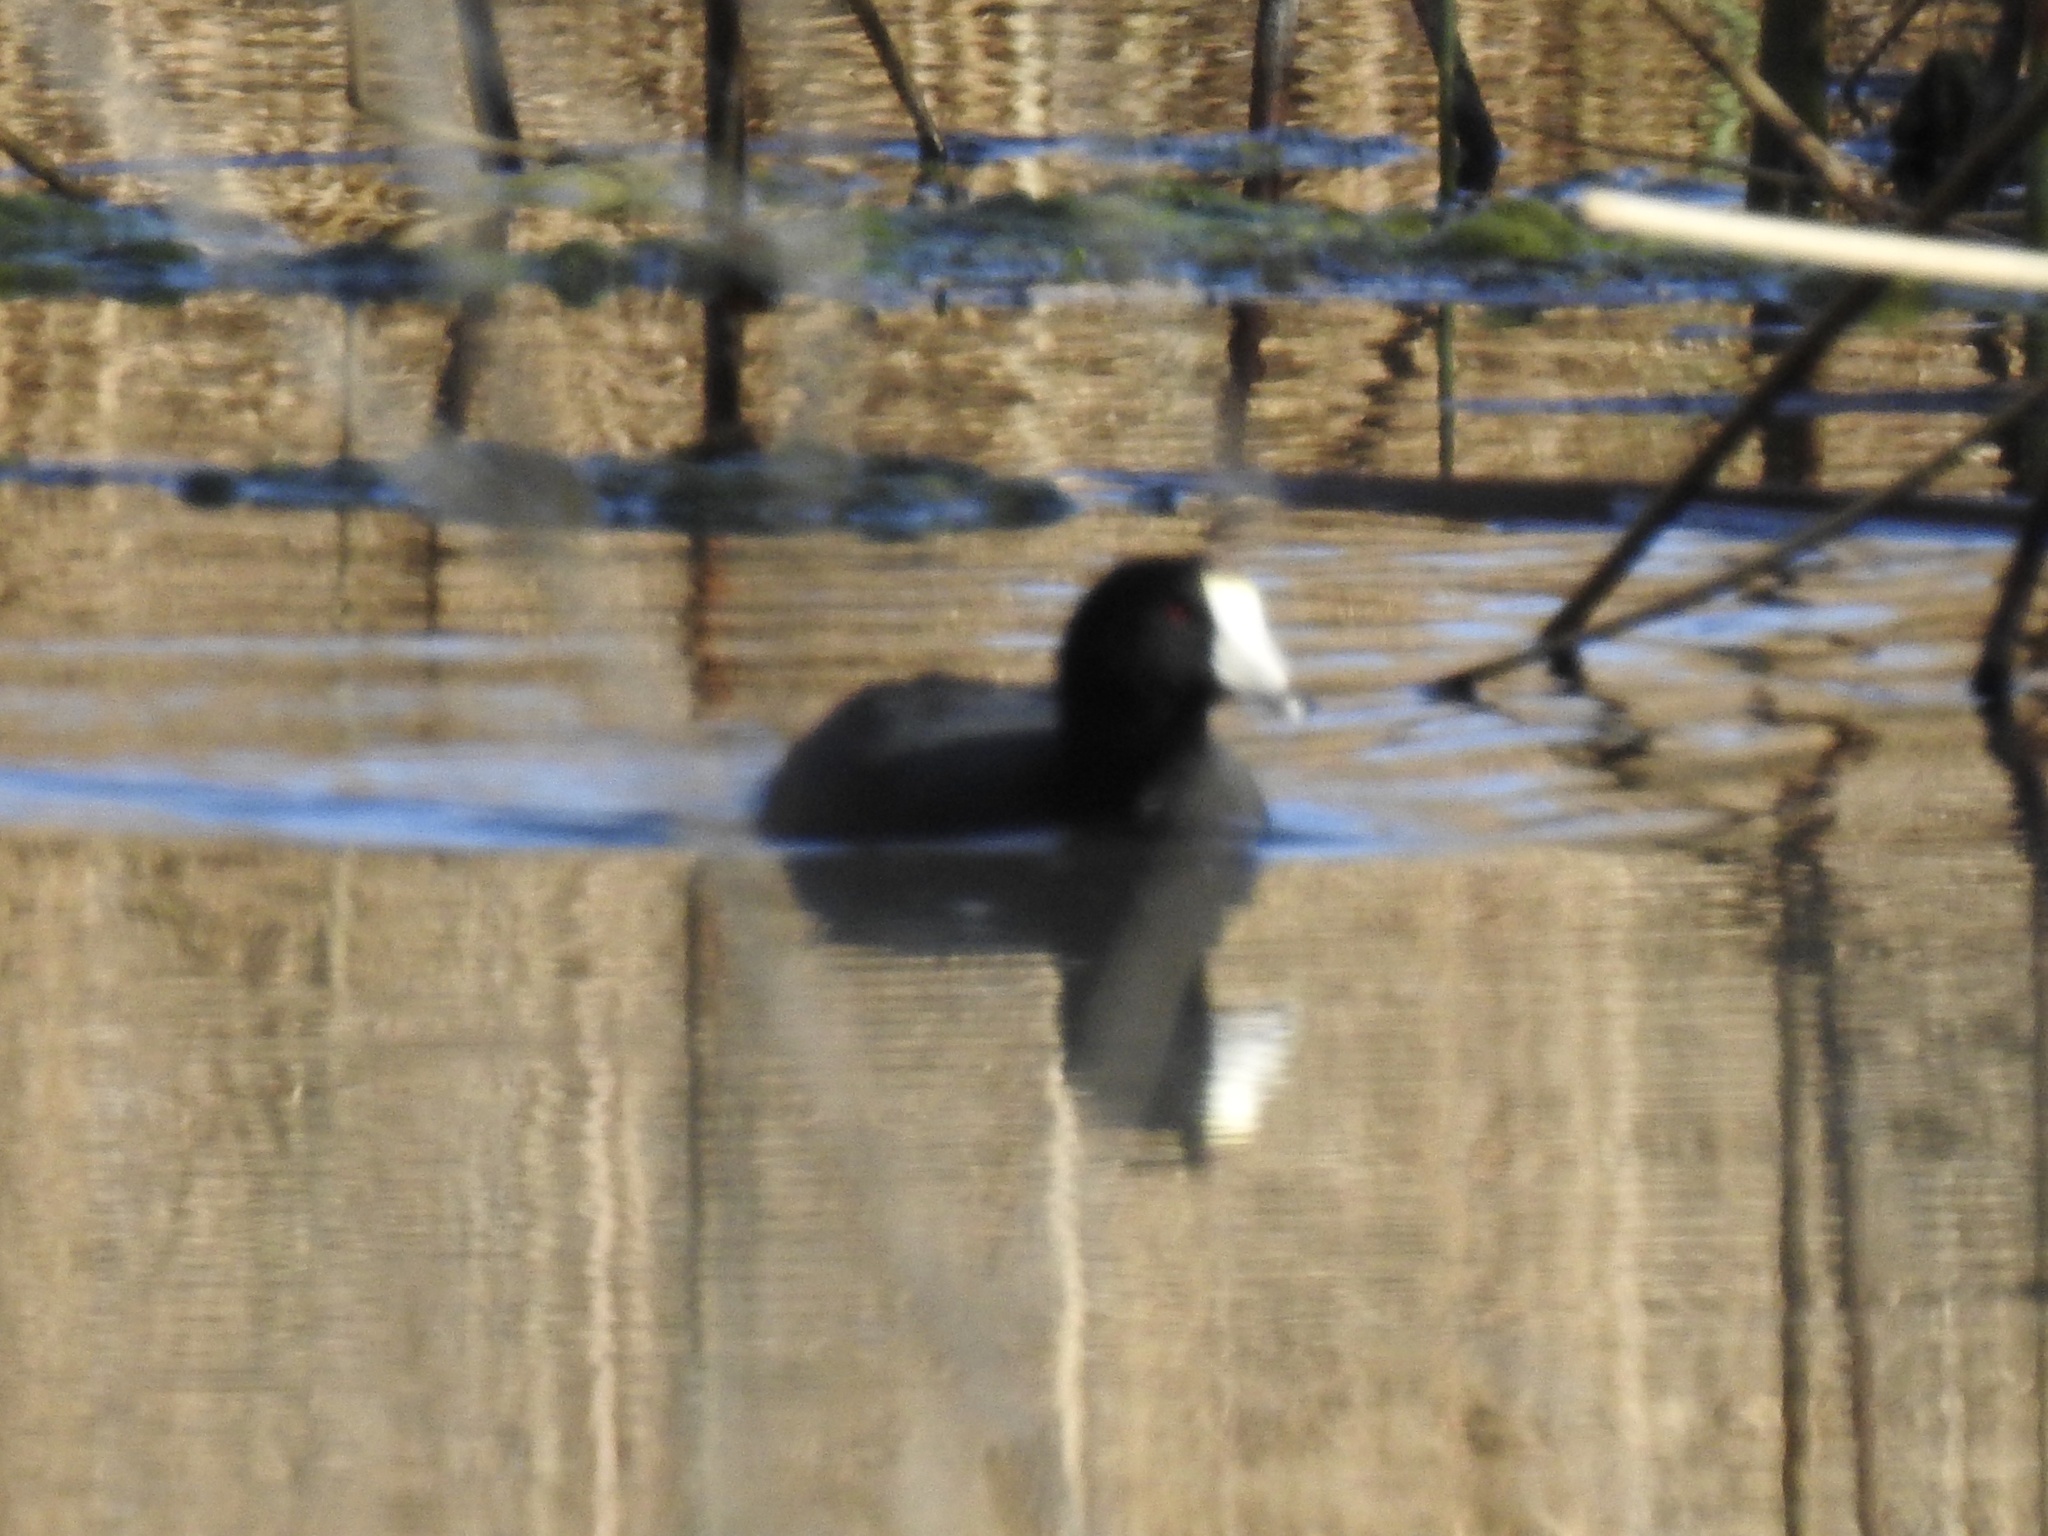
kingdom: Animalia
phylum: Chordata
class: Aves
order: Gruiformes
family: Rallidae
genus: Fulica
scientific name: Fulica americana
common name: American coot
